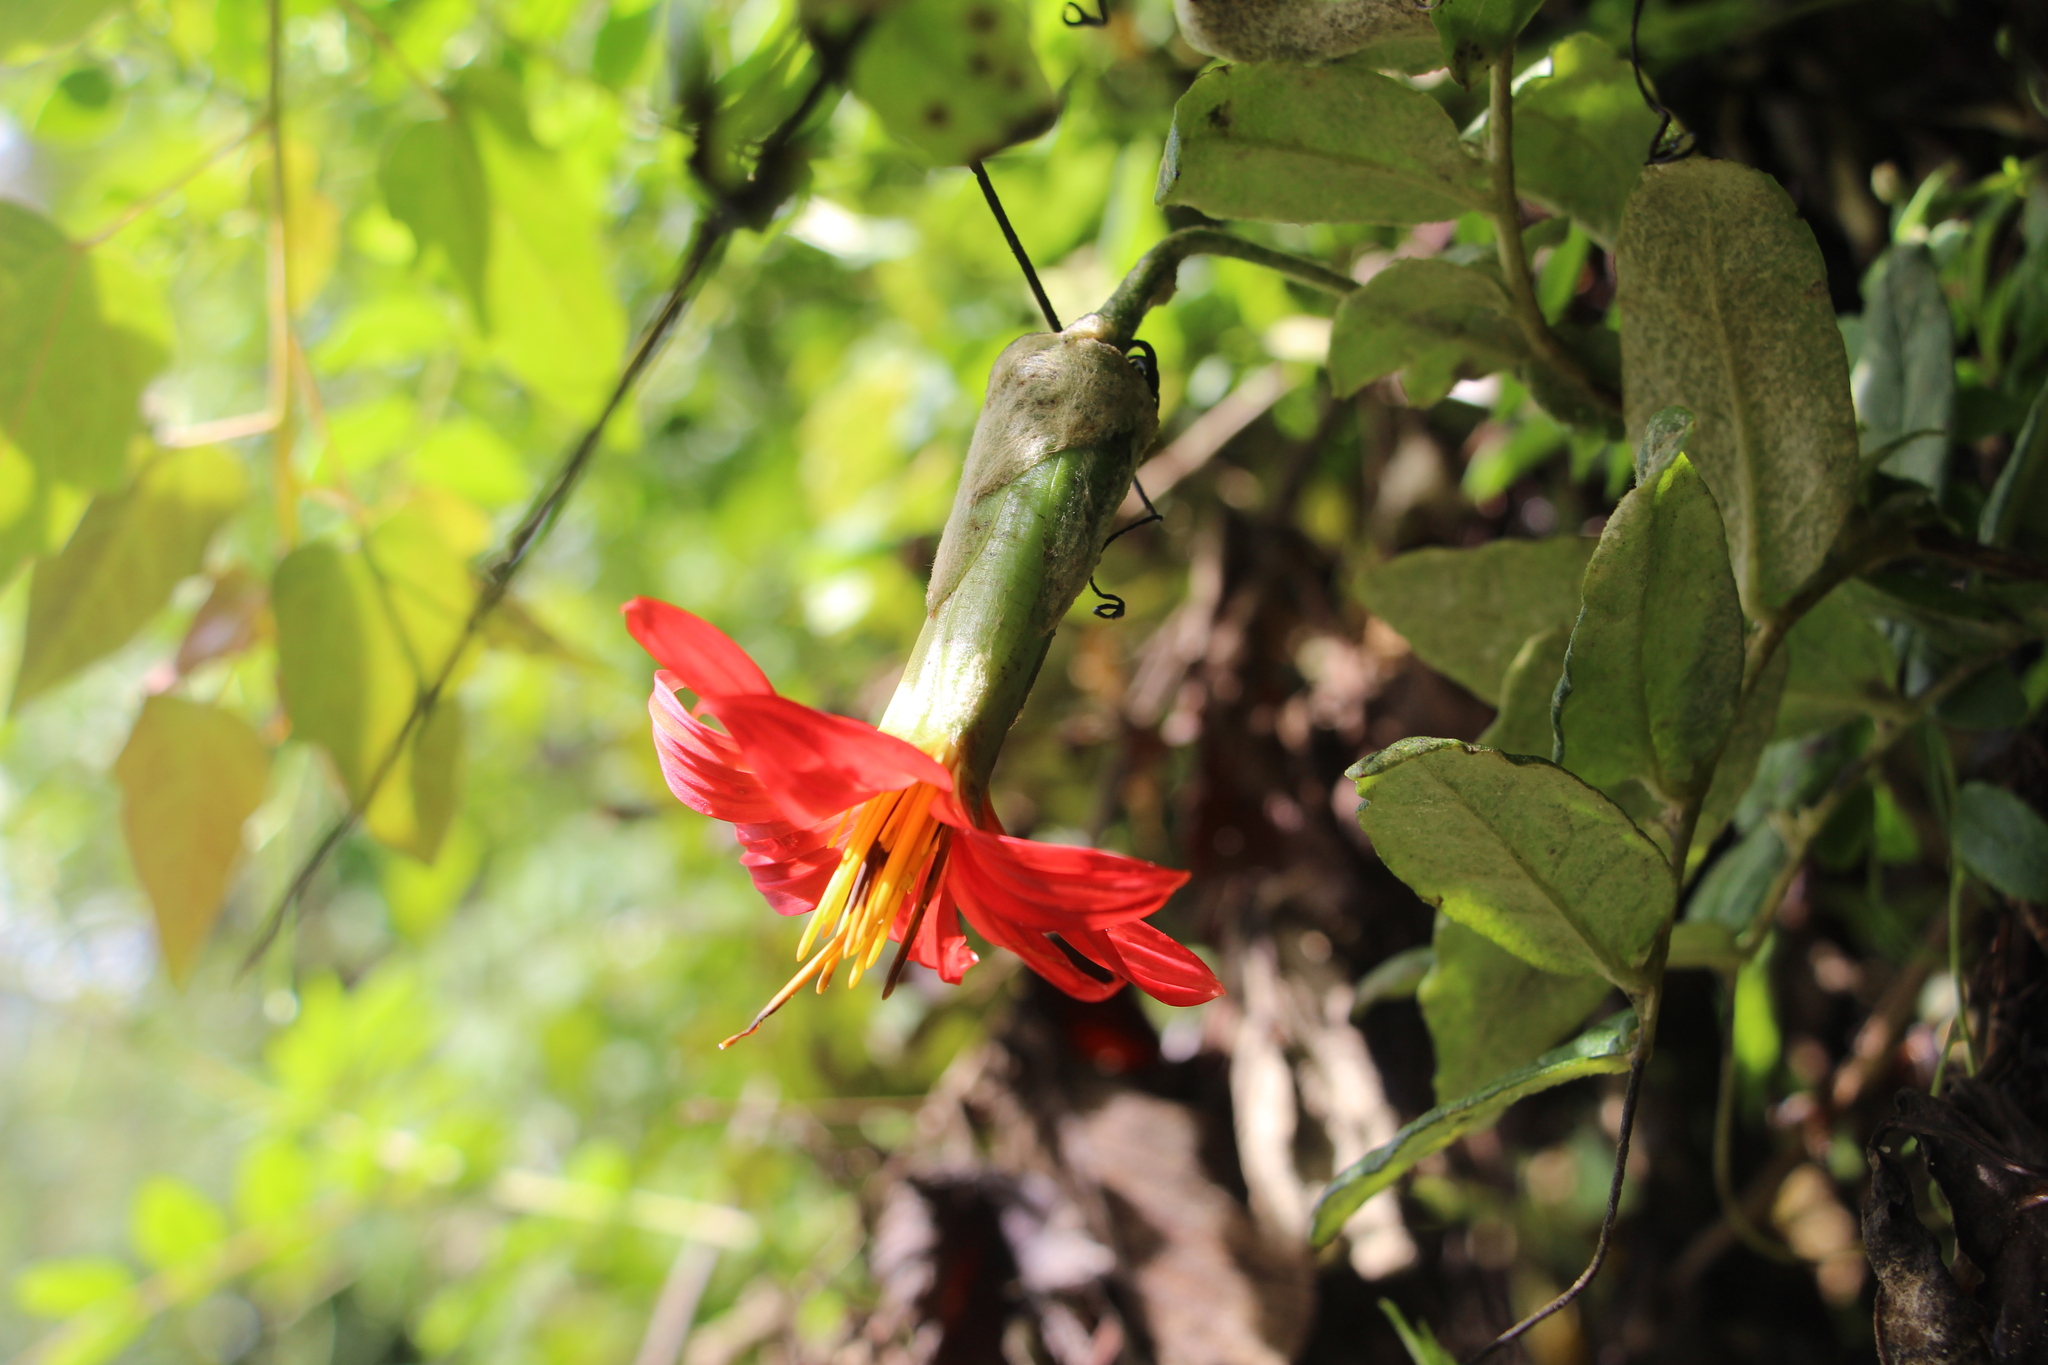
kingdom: Plantae
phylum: Tracheophyta
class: Magnoliopsida
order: Asterales
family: Asteraceae
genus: Mutisia
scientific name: Mutisia clematis
